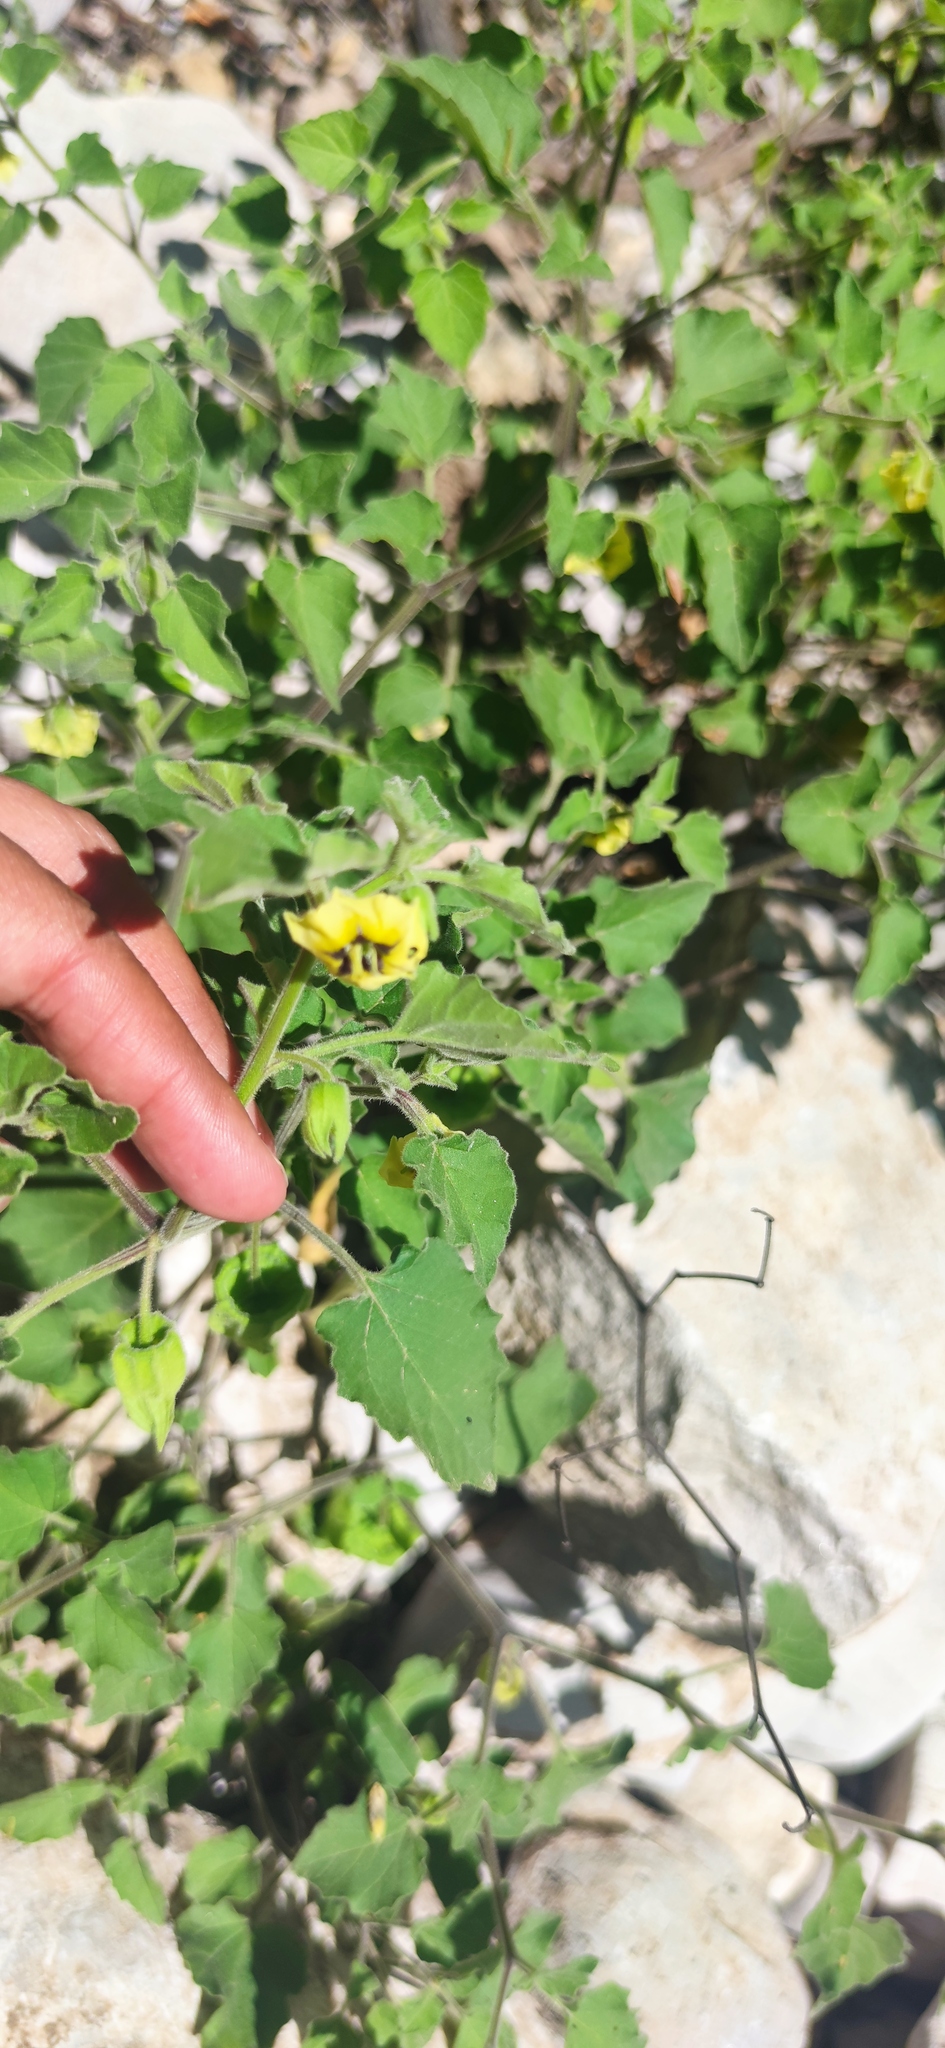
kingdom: Plantae
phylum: Tracheophyta
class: Magnoliopsida
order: Solanales
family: Solanaceae
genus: Physalis
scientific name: Physalis cinerascens
